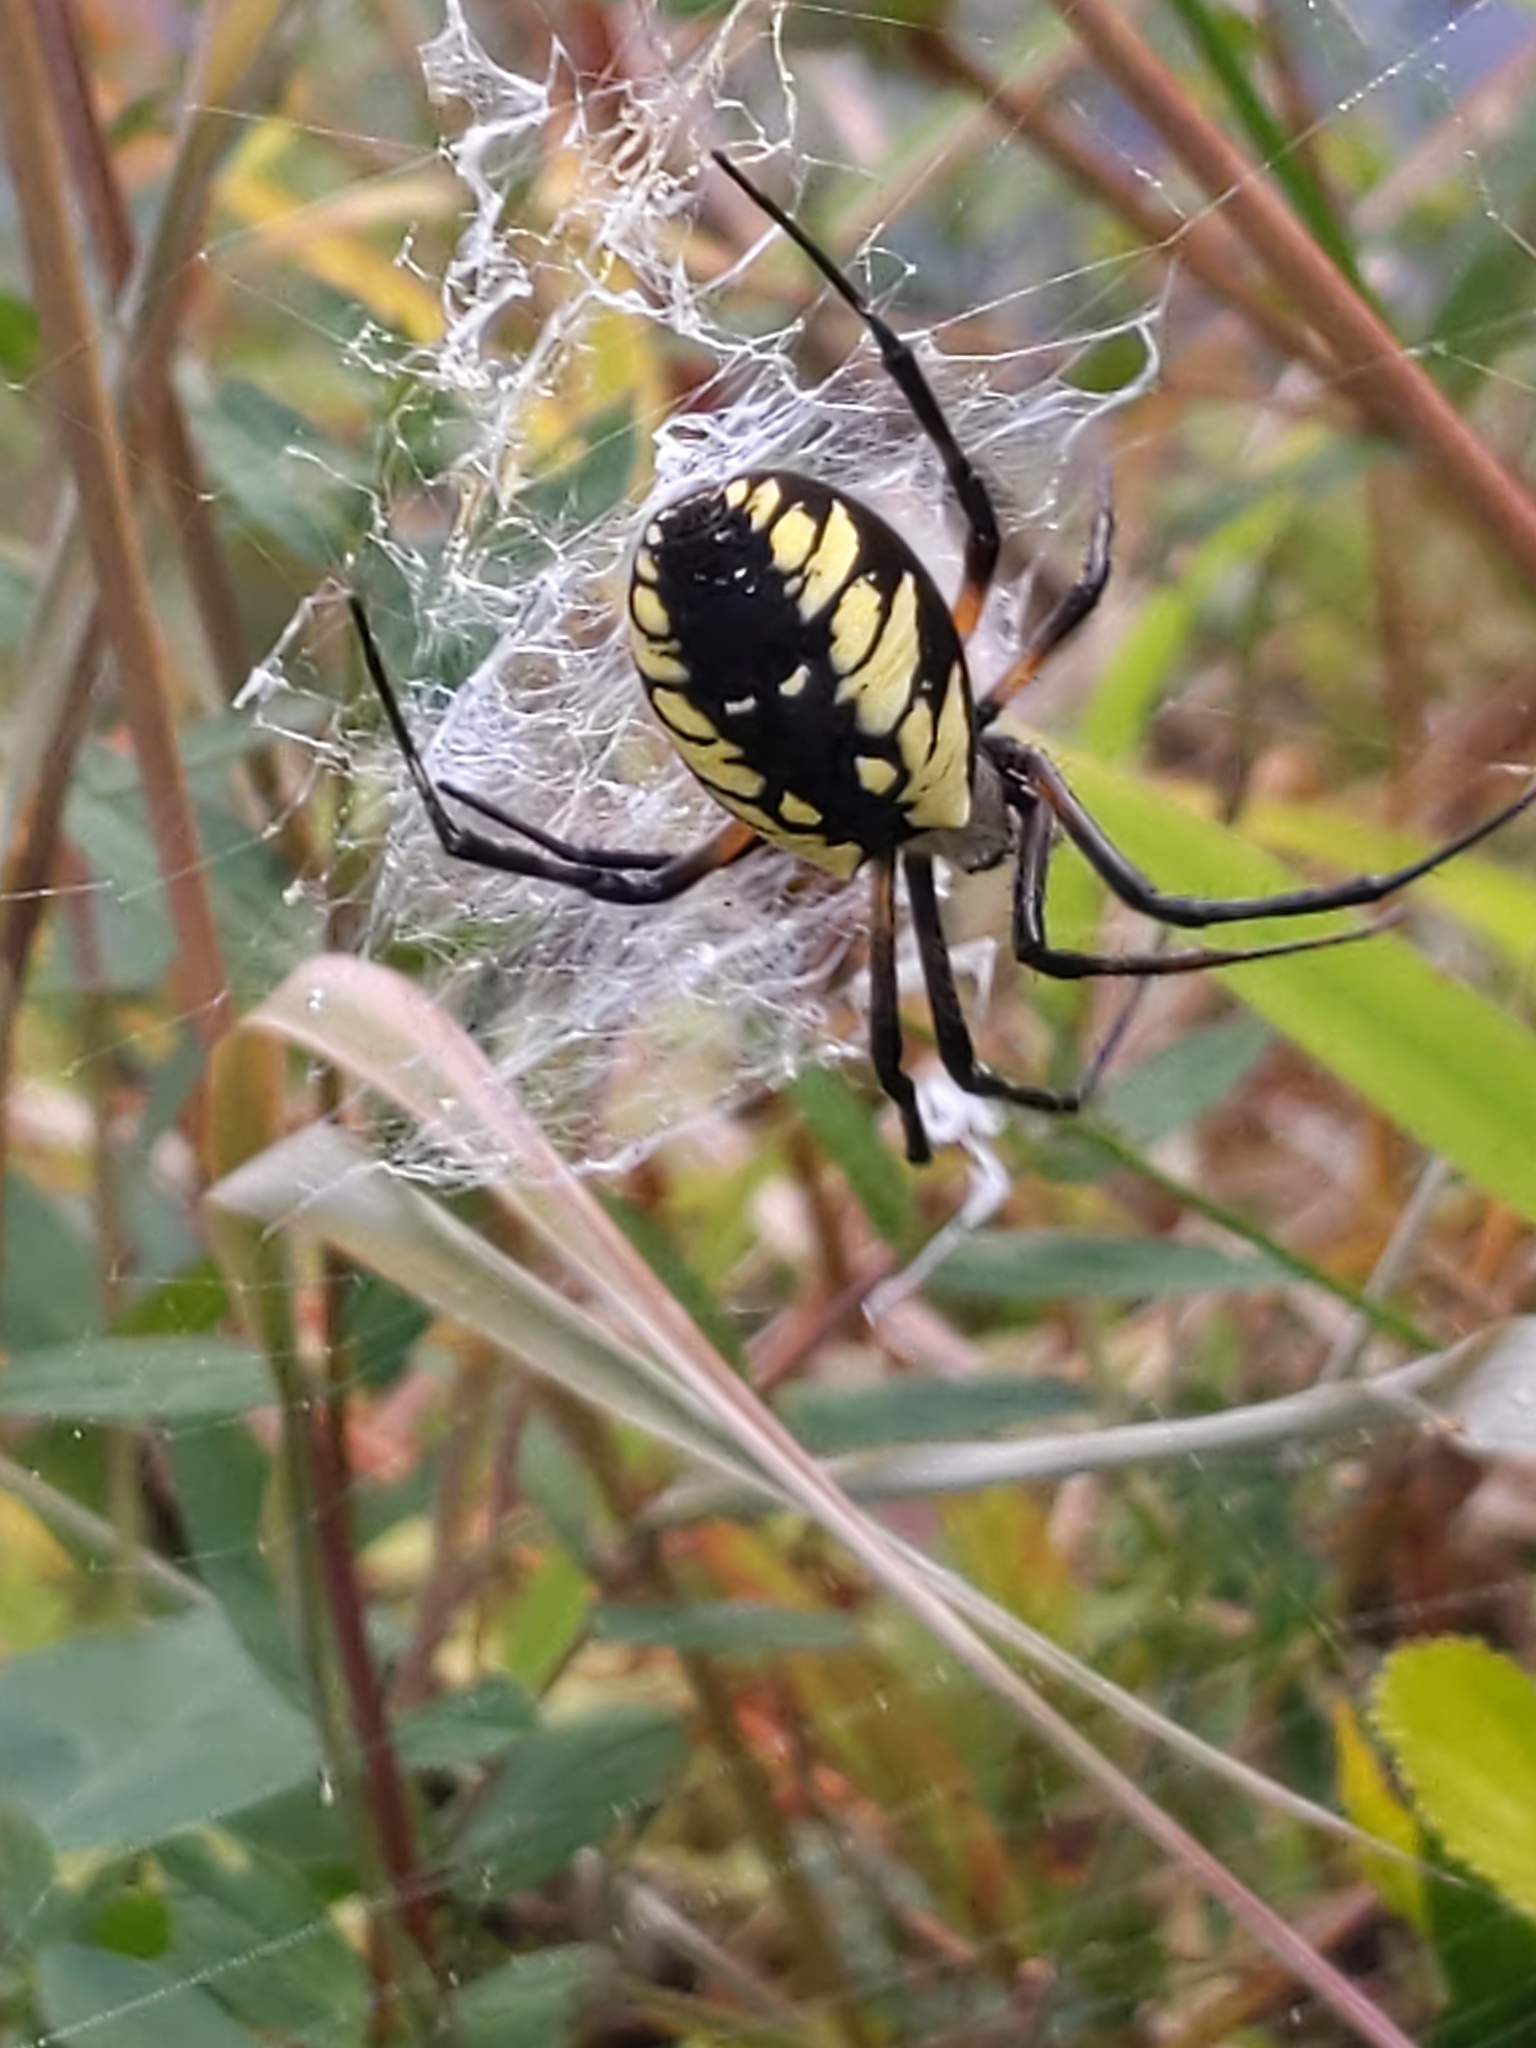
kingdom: Animalia
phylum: Arthropoda
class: Arachnida
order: Araneae
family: Araneidae
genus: Argiope
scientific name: Argiope aurantia
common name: Orb weavers
